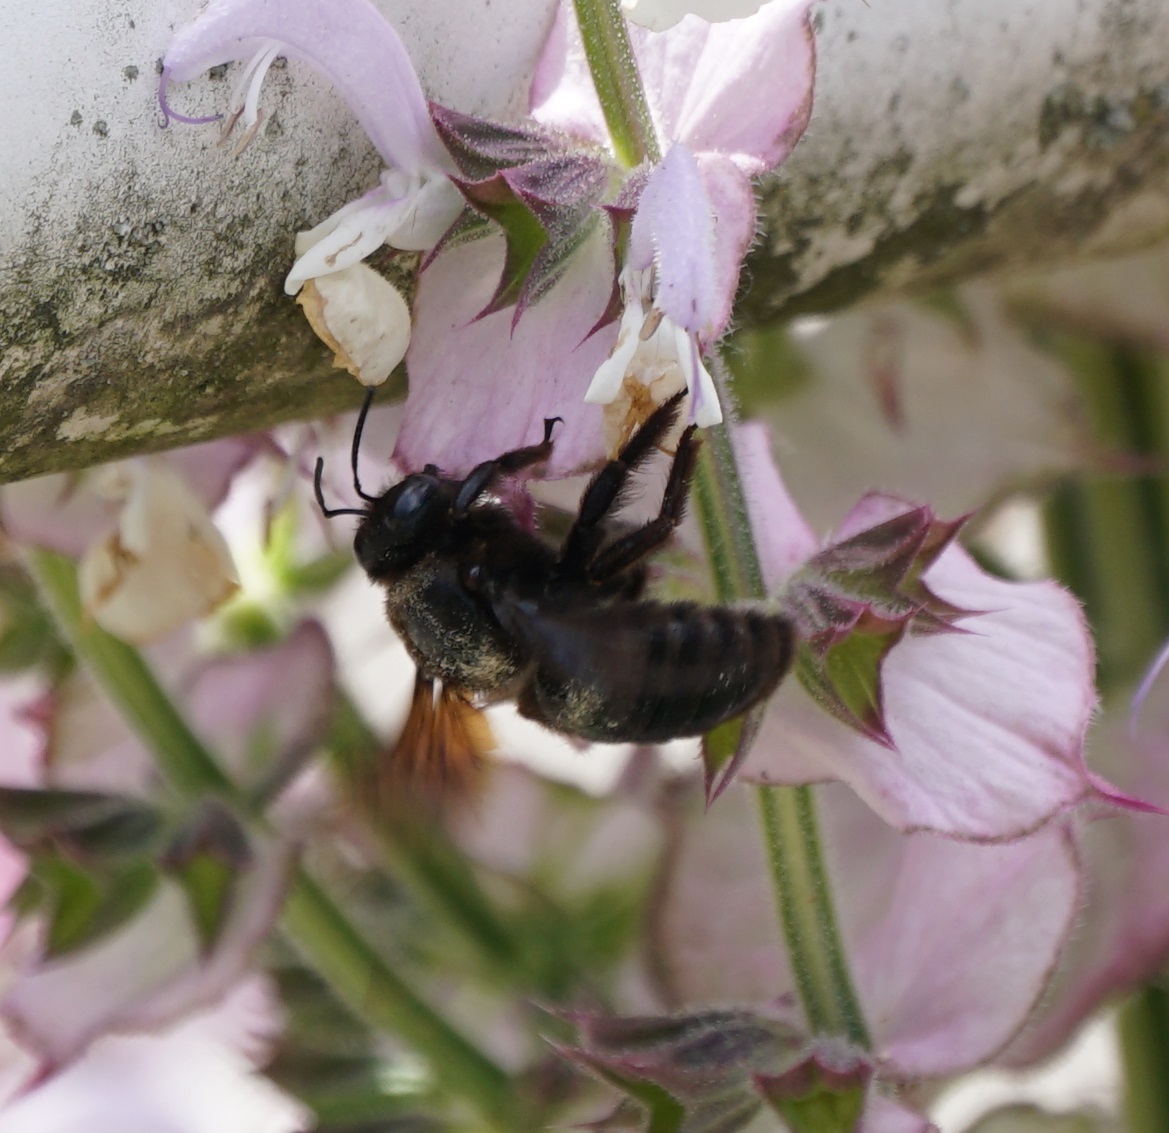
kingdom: Animalia
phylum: Arthropoda
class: Insecta
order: Hymenoptera
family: Apidae
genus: Xylocopa
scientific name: Xylocopa violacea
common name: Violet carpenter bee
